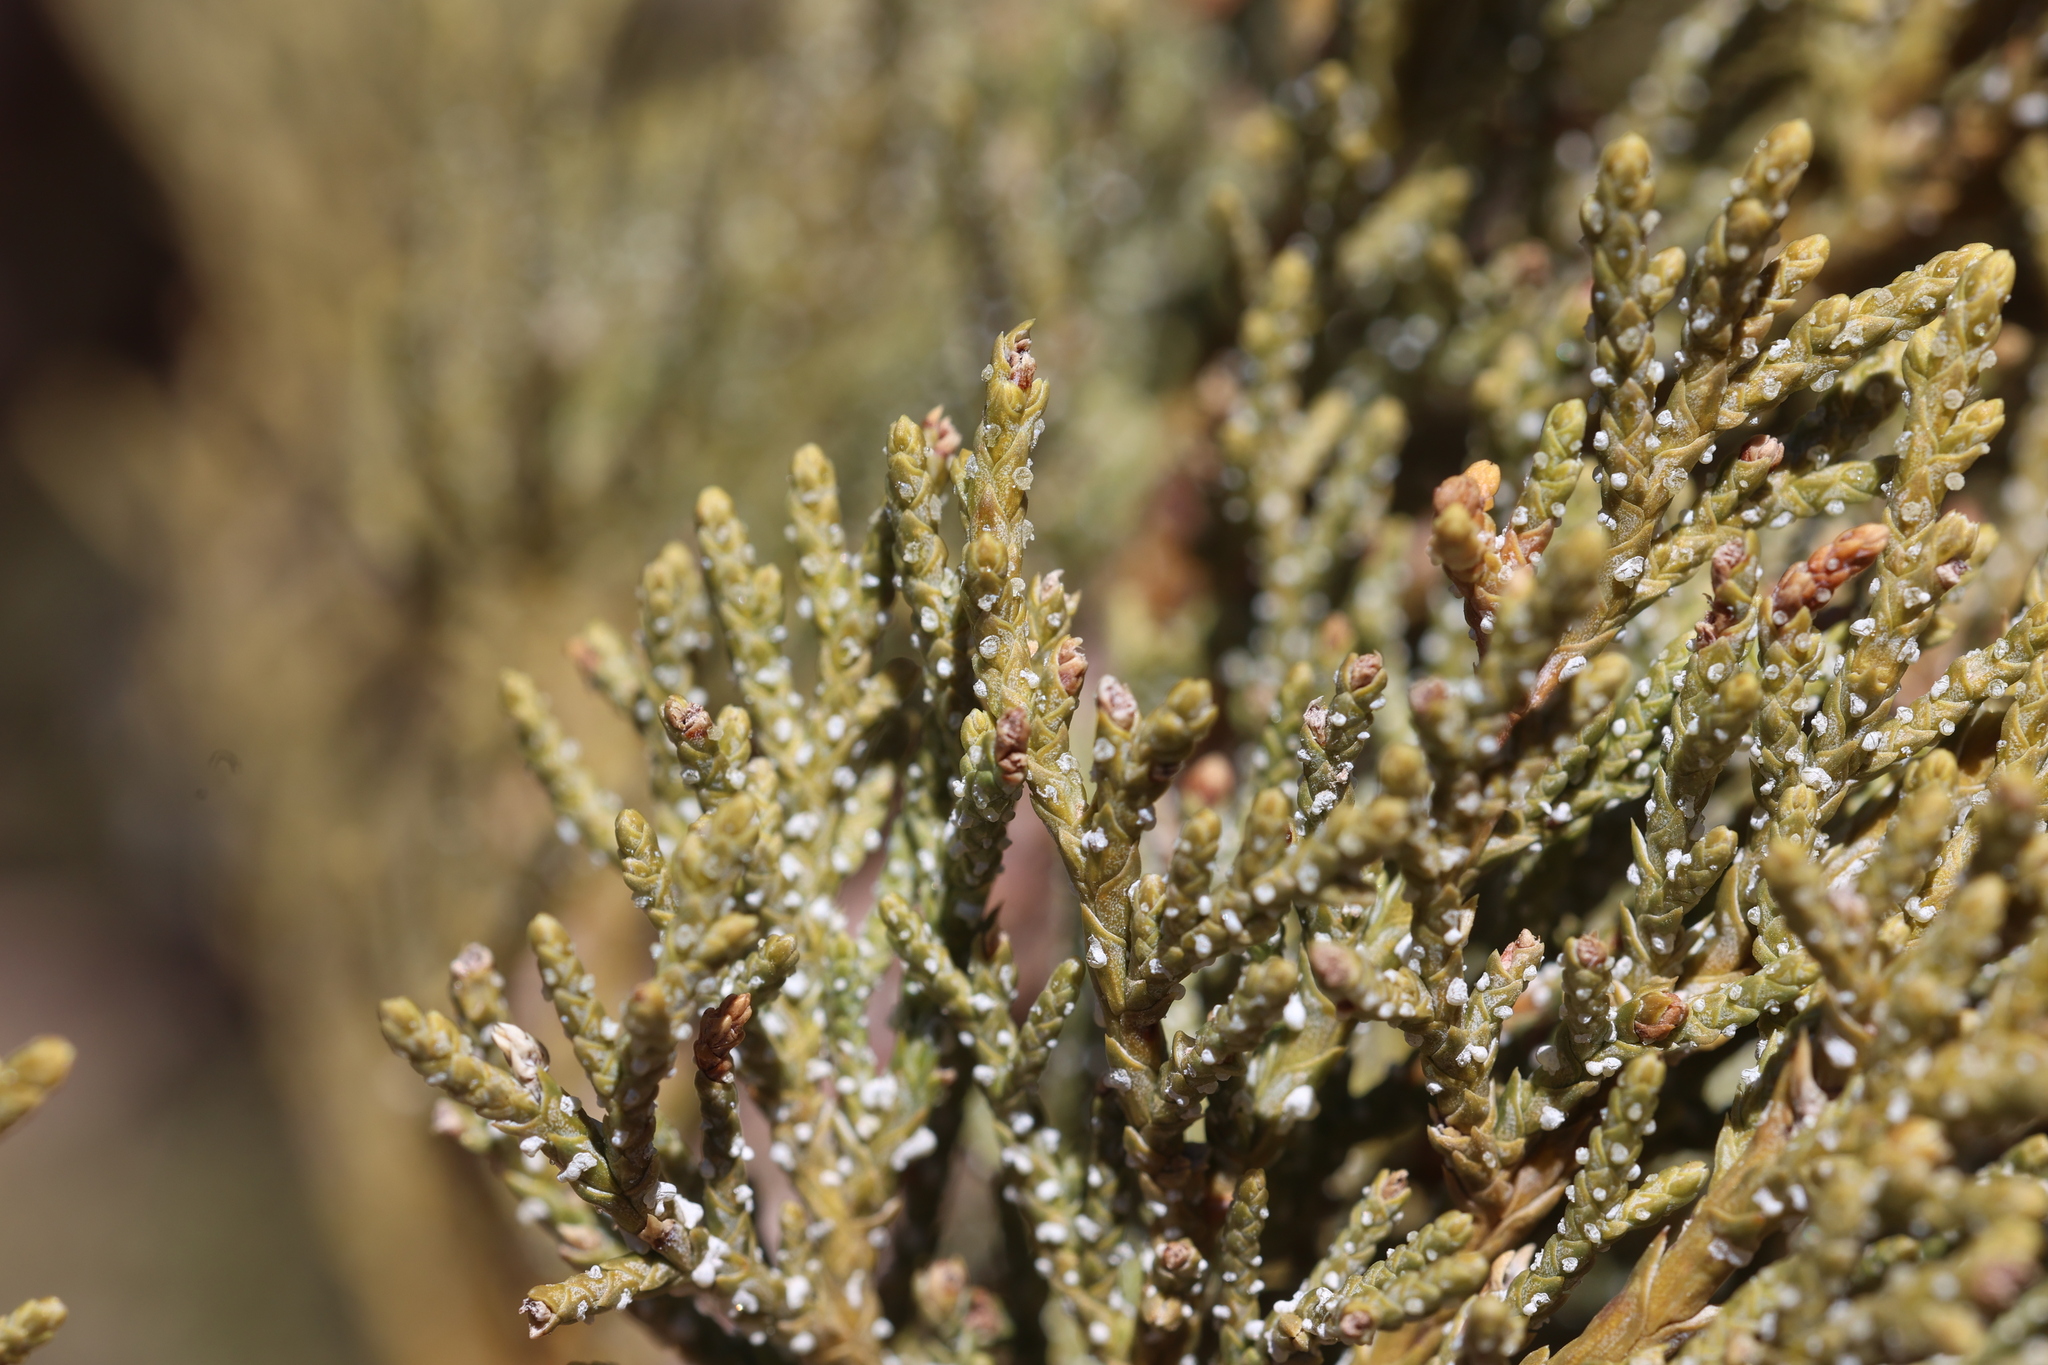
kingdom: Plantae
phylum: Tracheophyta
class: Pinopsida
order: Pinales
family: Cupressaceae
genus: Juniperus
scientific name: Juniperus deppeana
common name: Alligator juniper
